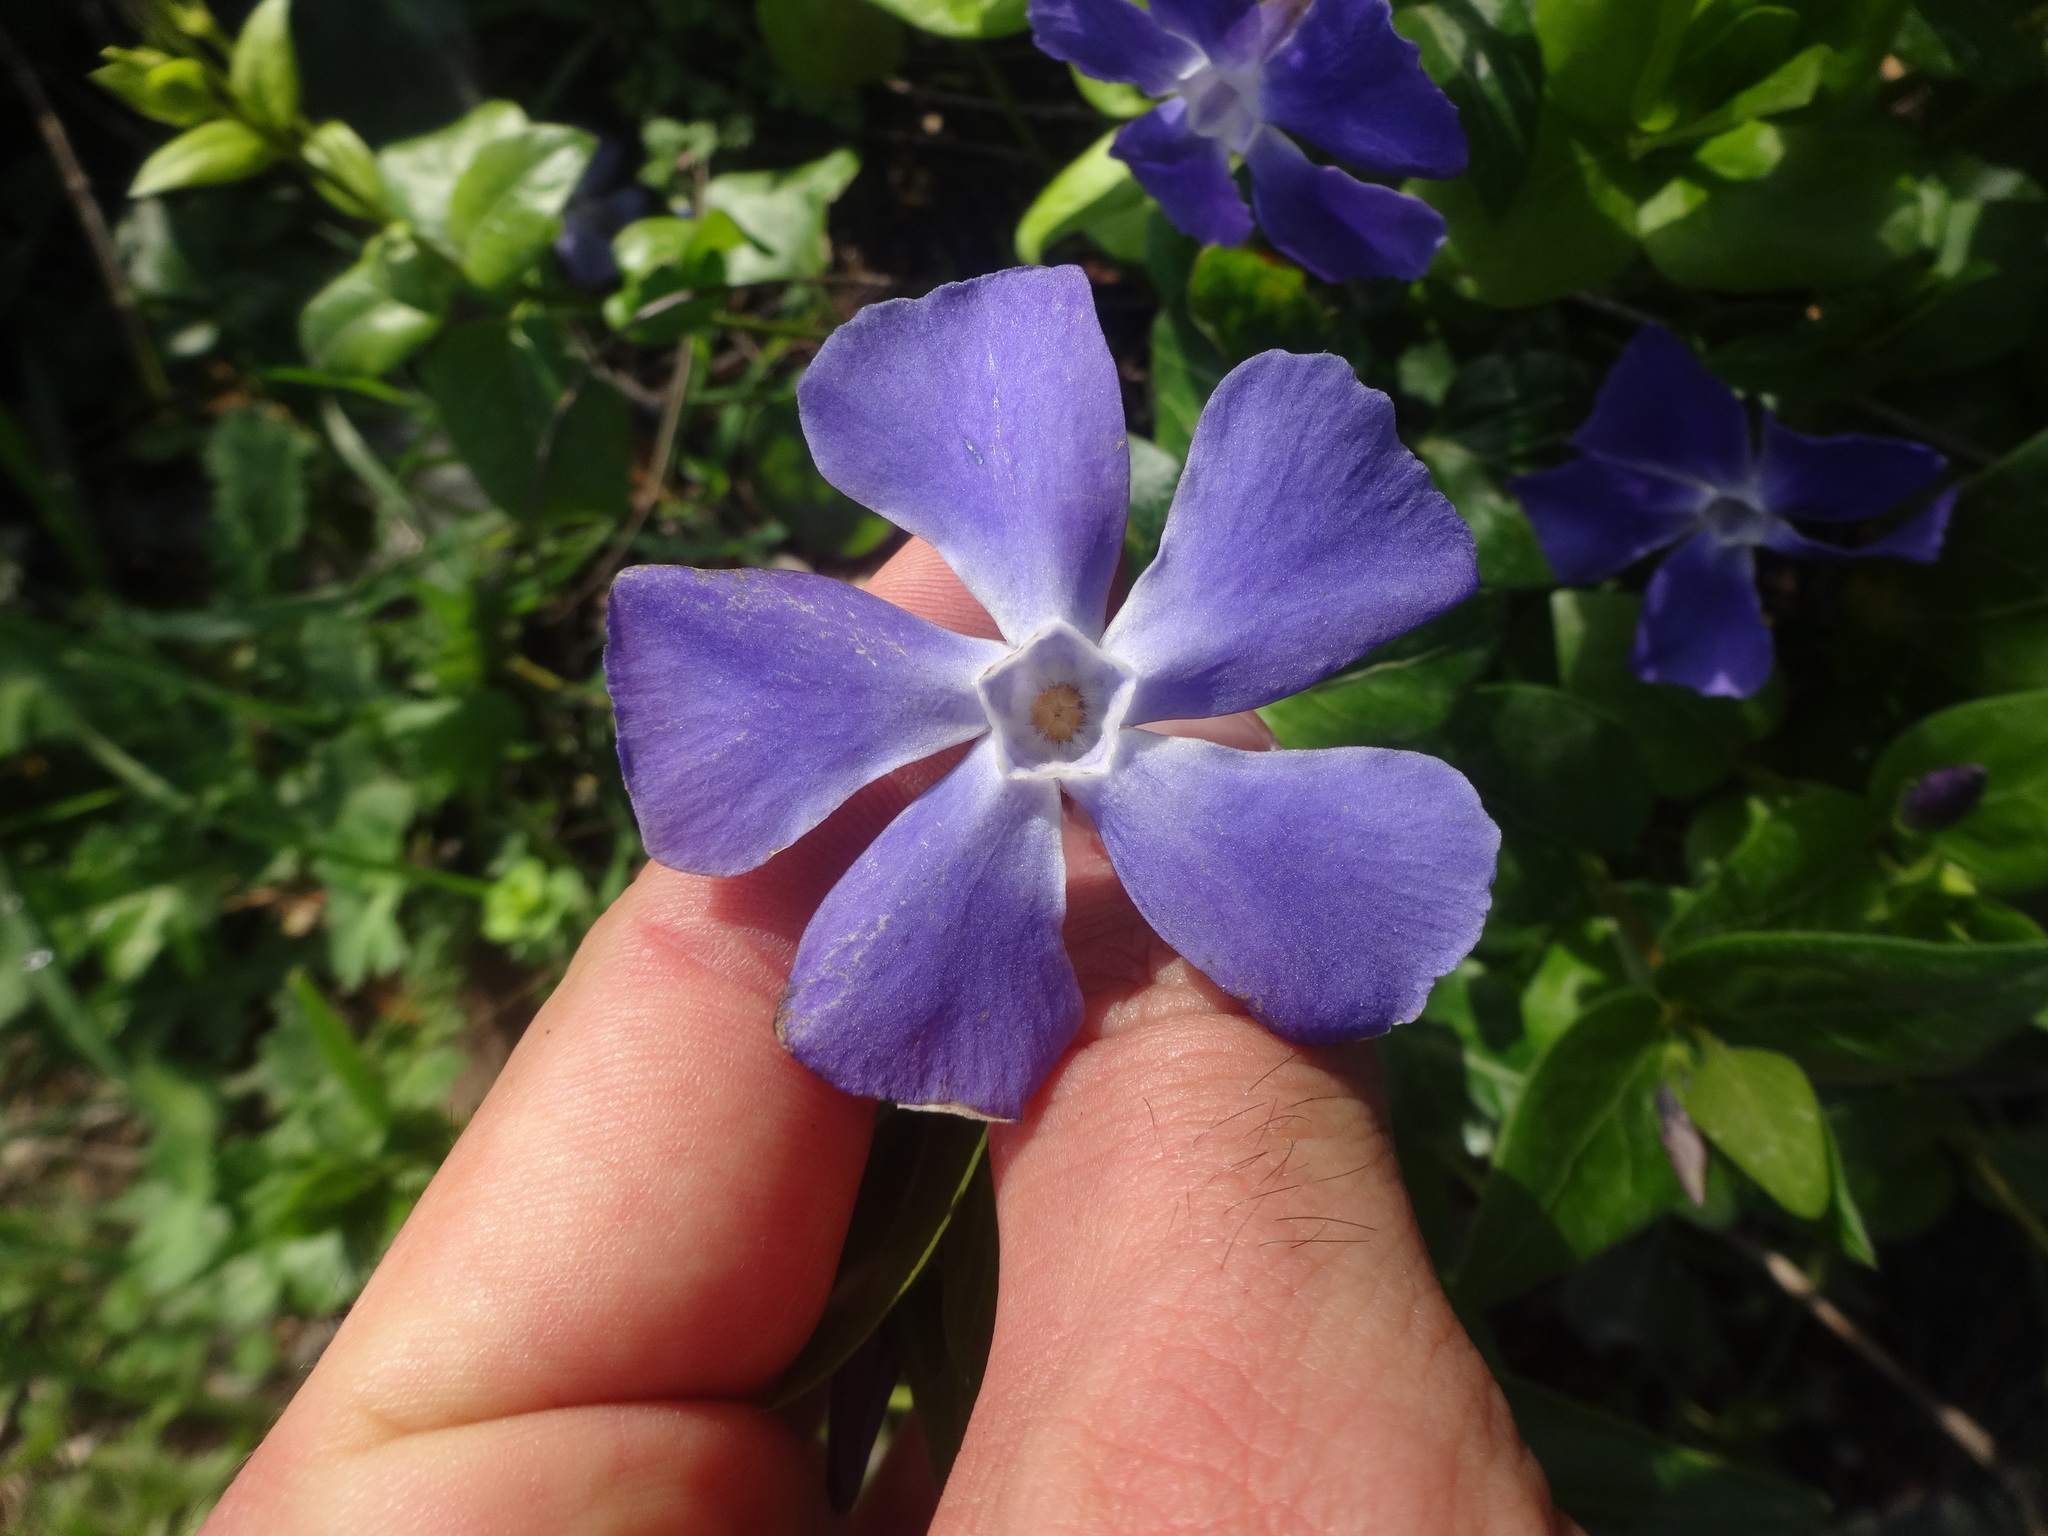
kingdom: Plantae
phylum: Tracheophyta
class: Magnoliopsida
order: Gentianales
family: Apocynaceae
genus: Vinca
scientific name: Vinca major
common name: Greater periwinkle
